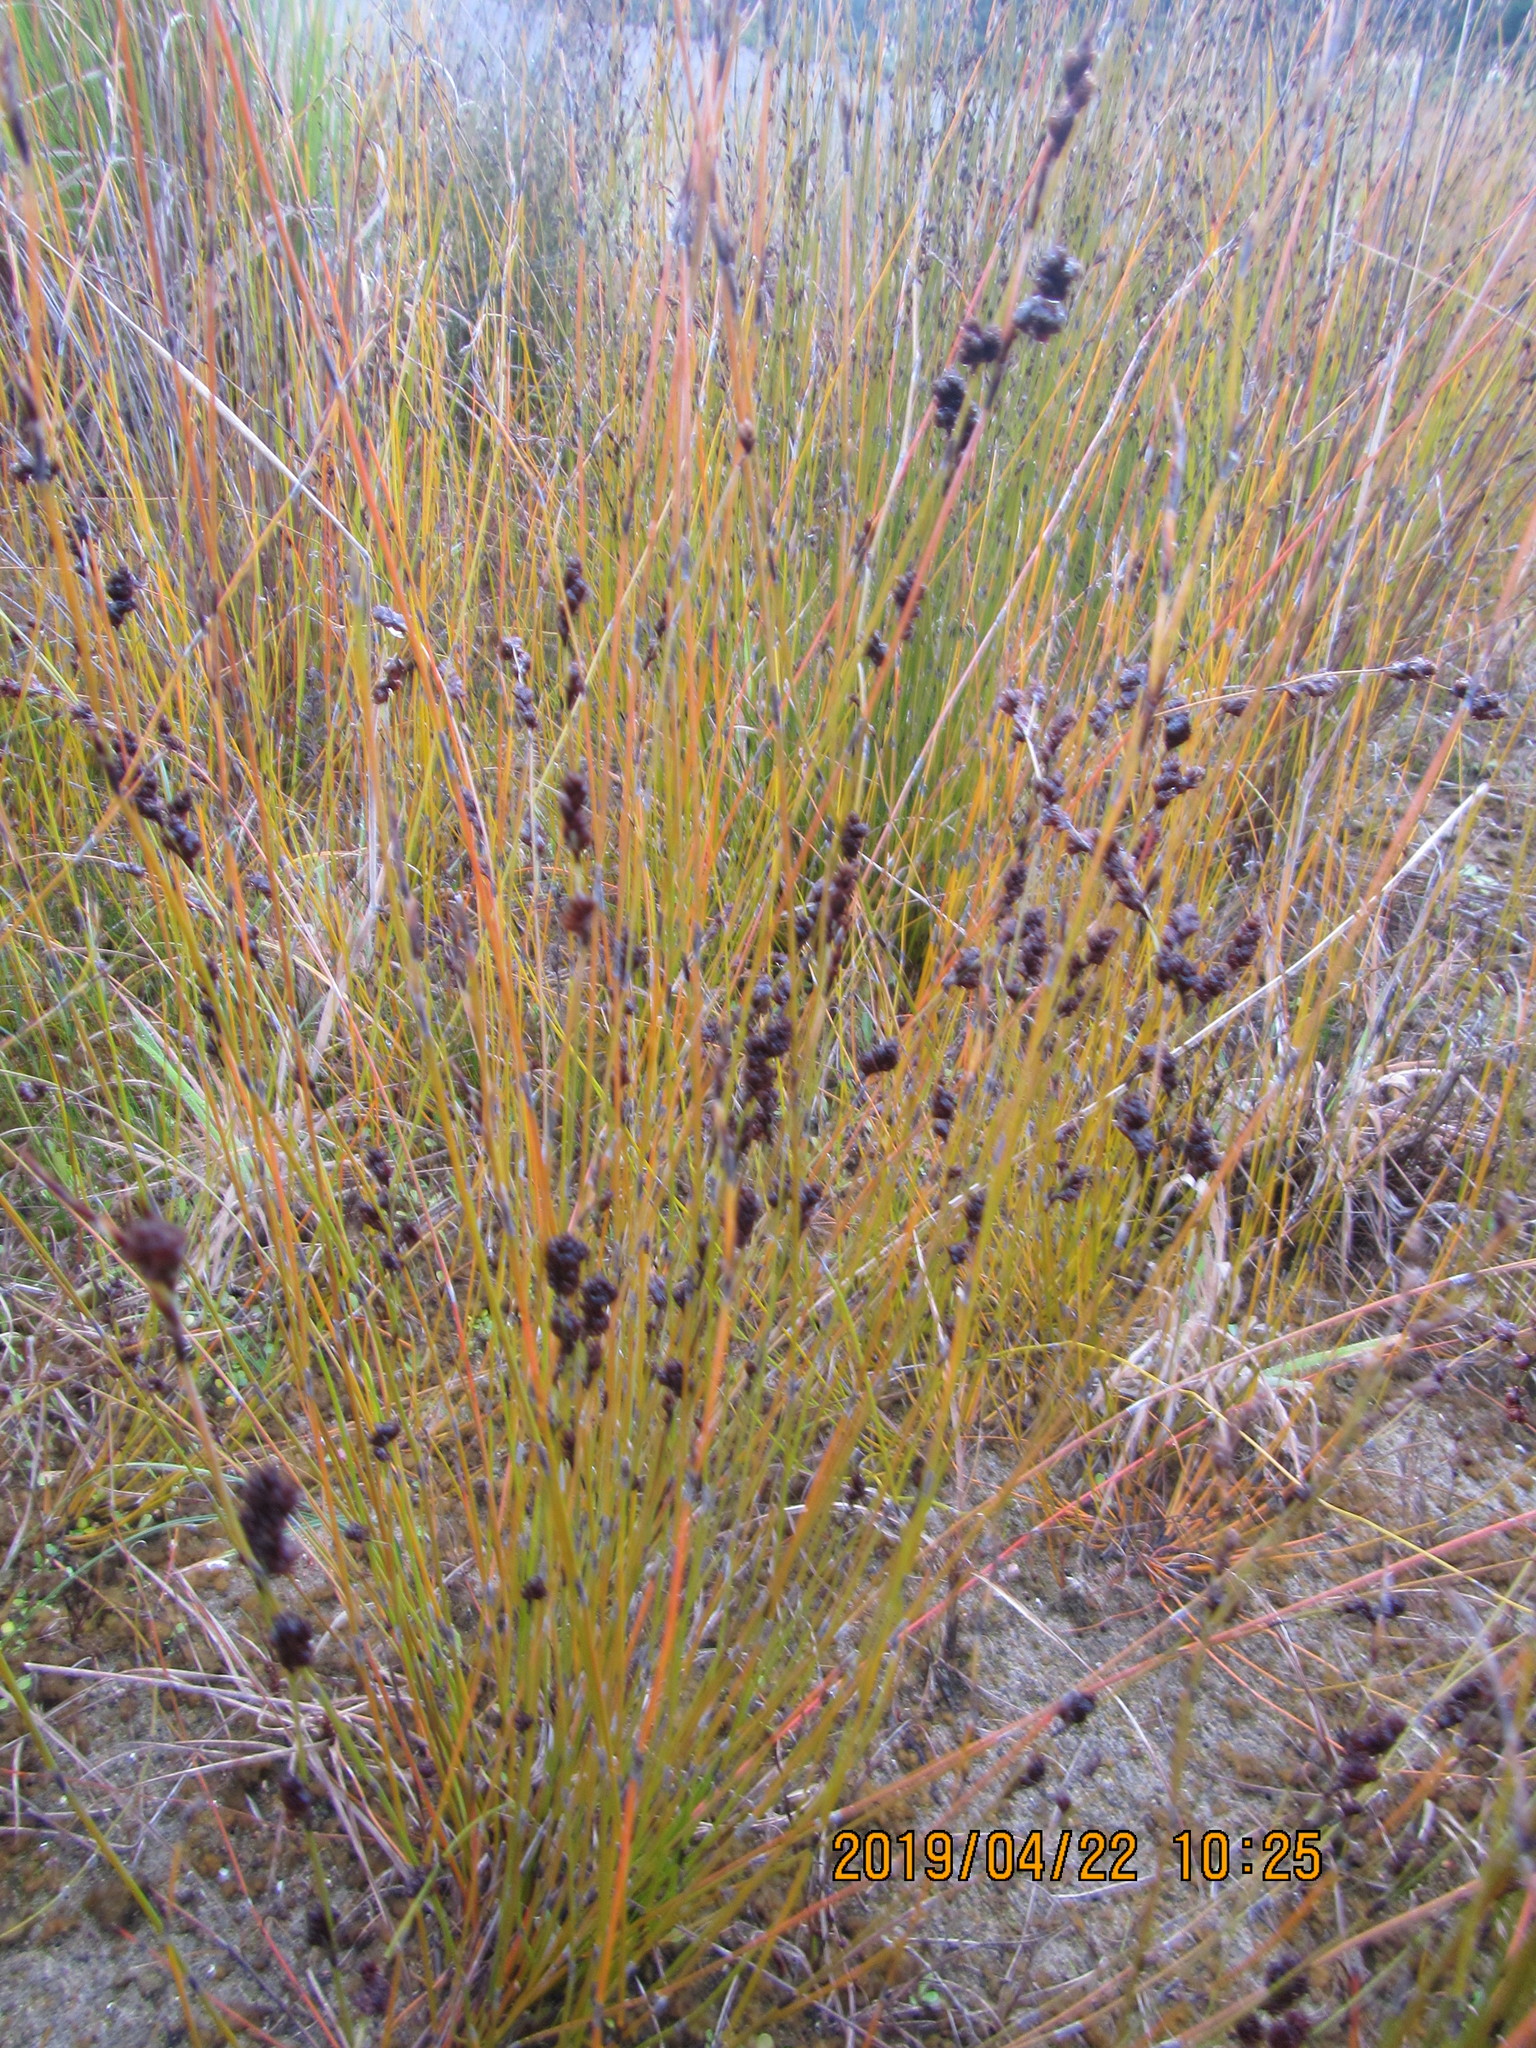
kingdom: Plantae
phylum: Tracheophyta
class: Liliopsida
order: Poales
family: Restionaceae
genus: Apodasmia
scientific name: Apodasmia similis
